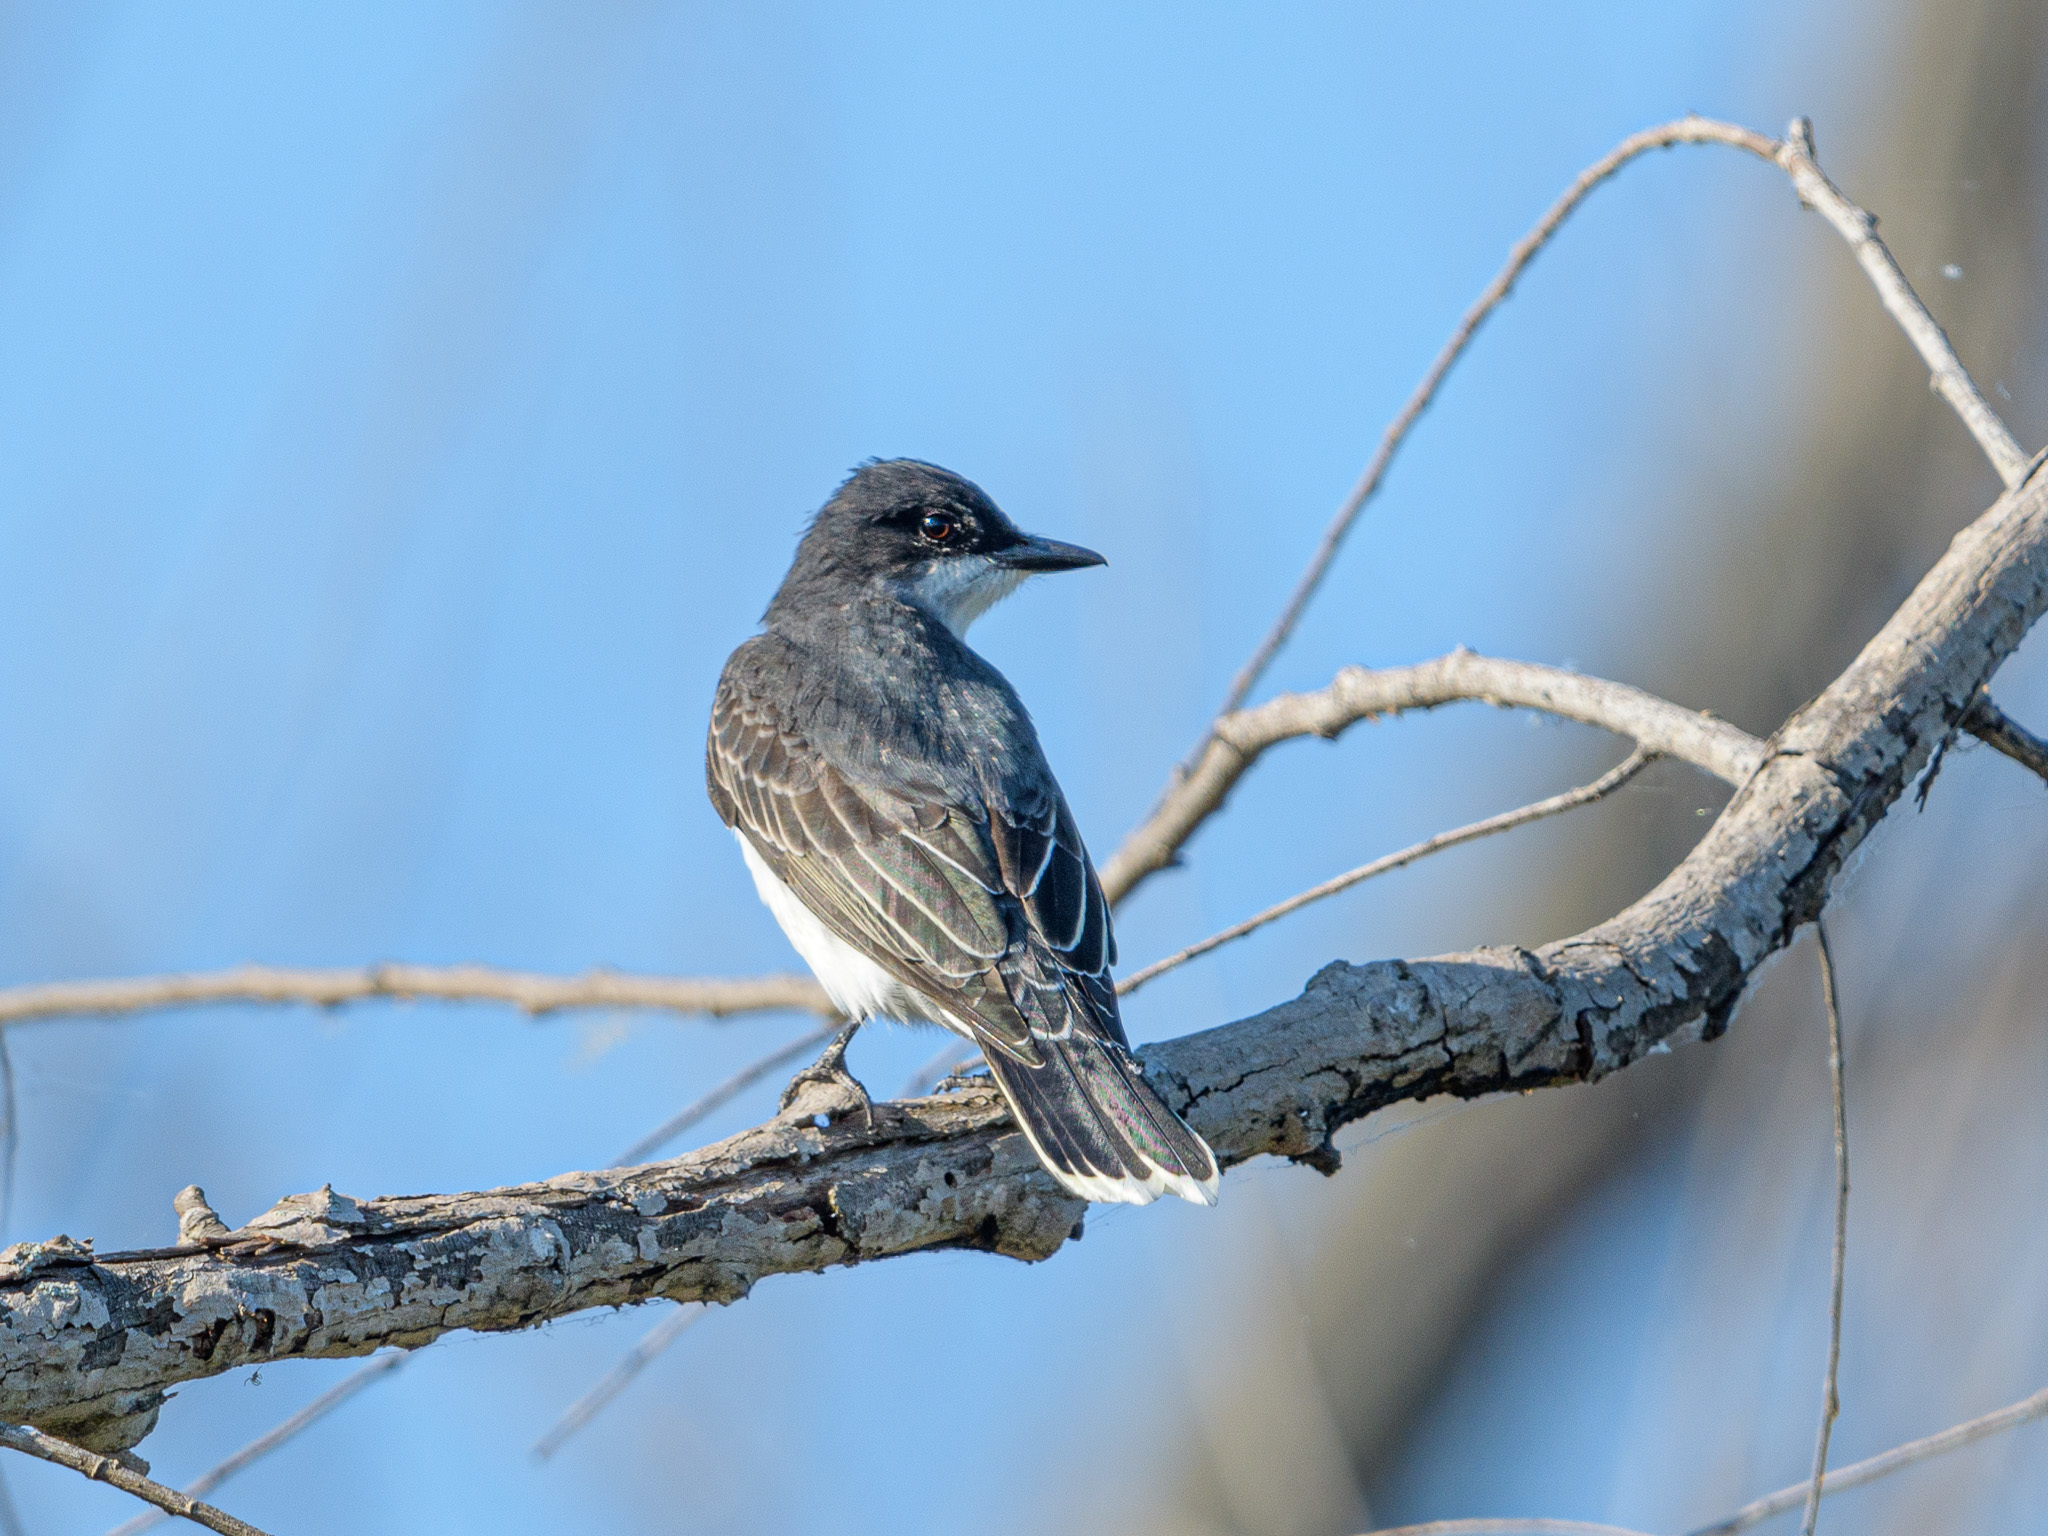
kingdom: Animalia
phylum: Chordata
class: Aves
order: Passeriformes
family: Tyrannidae
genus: Tyrannus
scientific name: Tyrannus tyrannus
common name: Eastern kingbird
